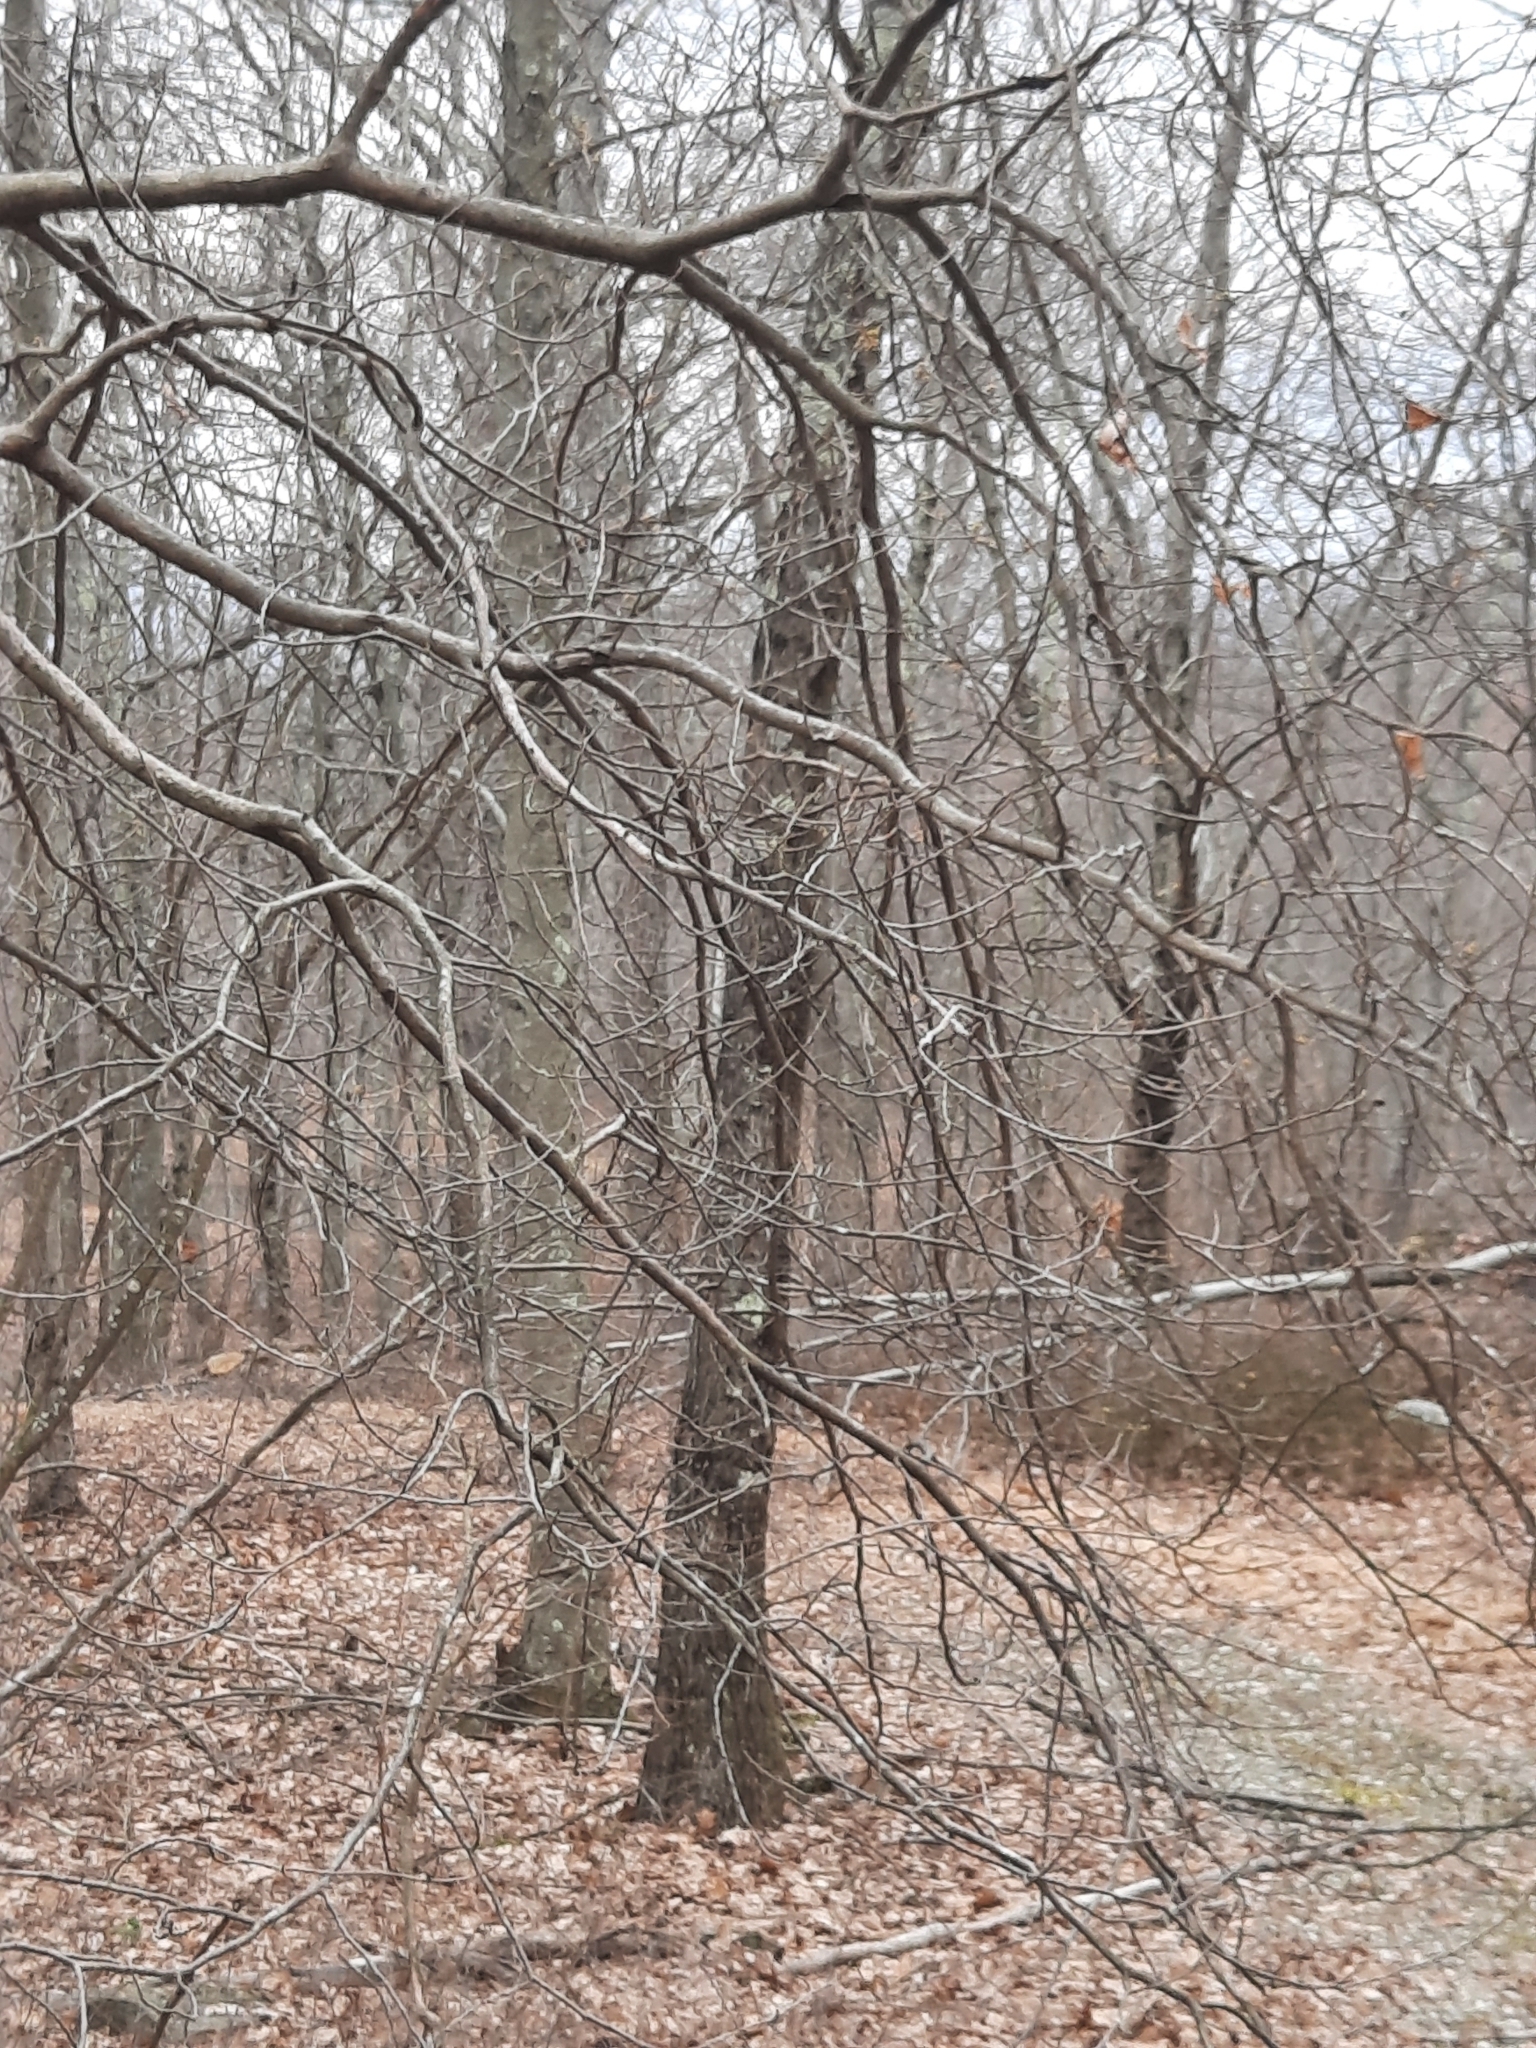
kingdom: Plantae
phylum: Tracheophyta
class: Magnoliopsida
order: Saxifragales
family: Hamamelidaceae
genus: Hamamelis
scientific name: Hamamelis virginiana
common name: Witch-hazel
